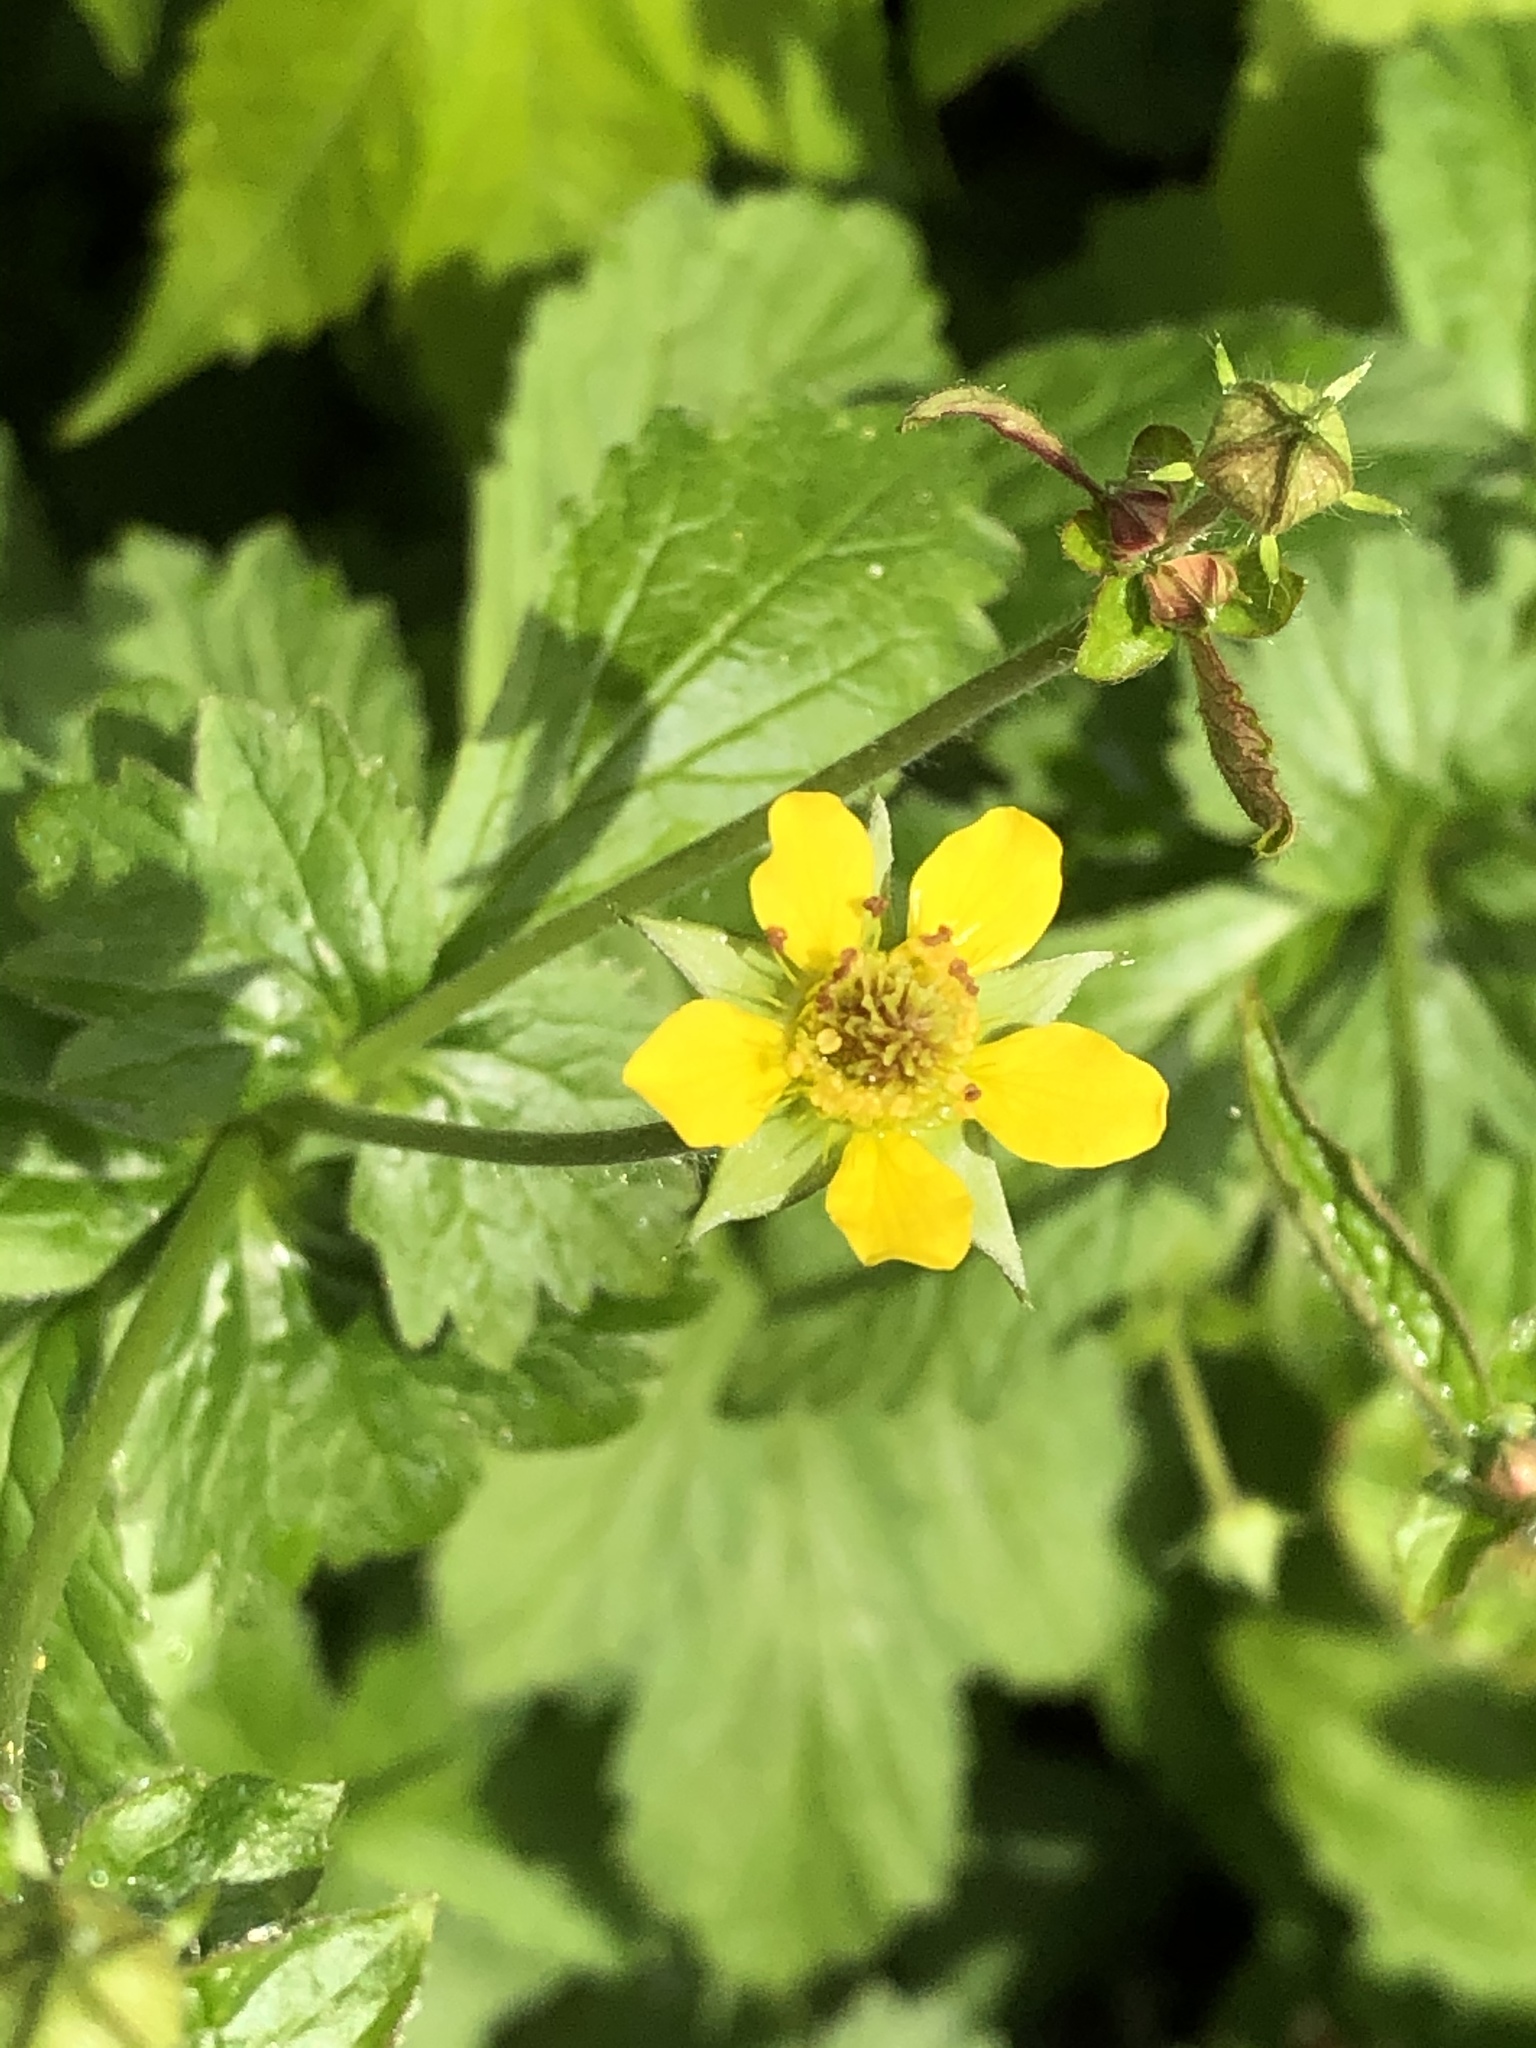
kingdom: Plantae
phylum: Tracheophyta
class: Magnoliopsida
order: Rosales
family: Rosaceae
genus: Geum
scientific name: Geum urbanum
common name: Wood avens
